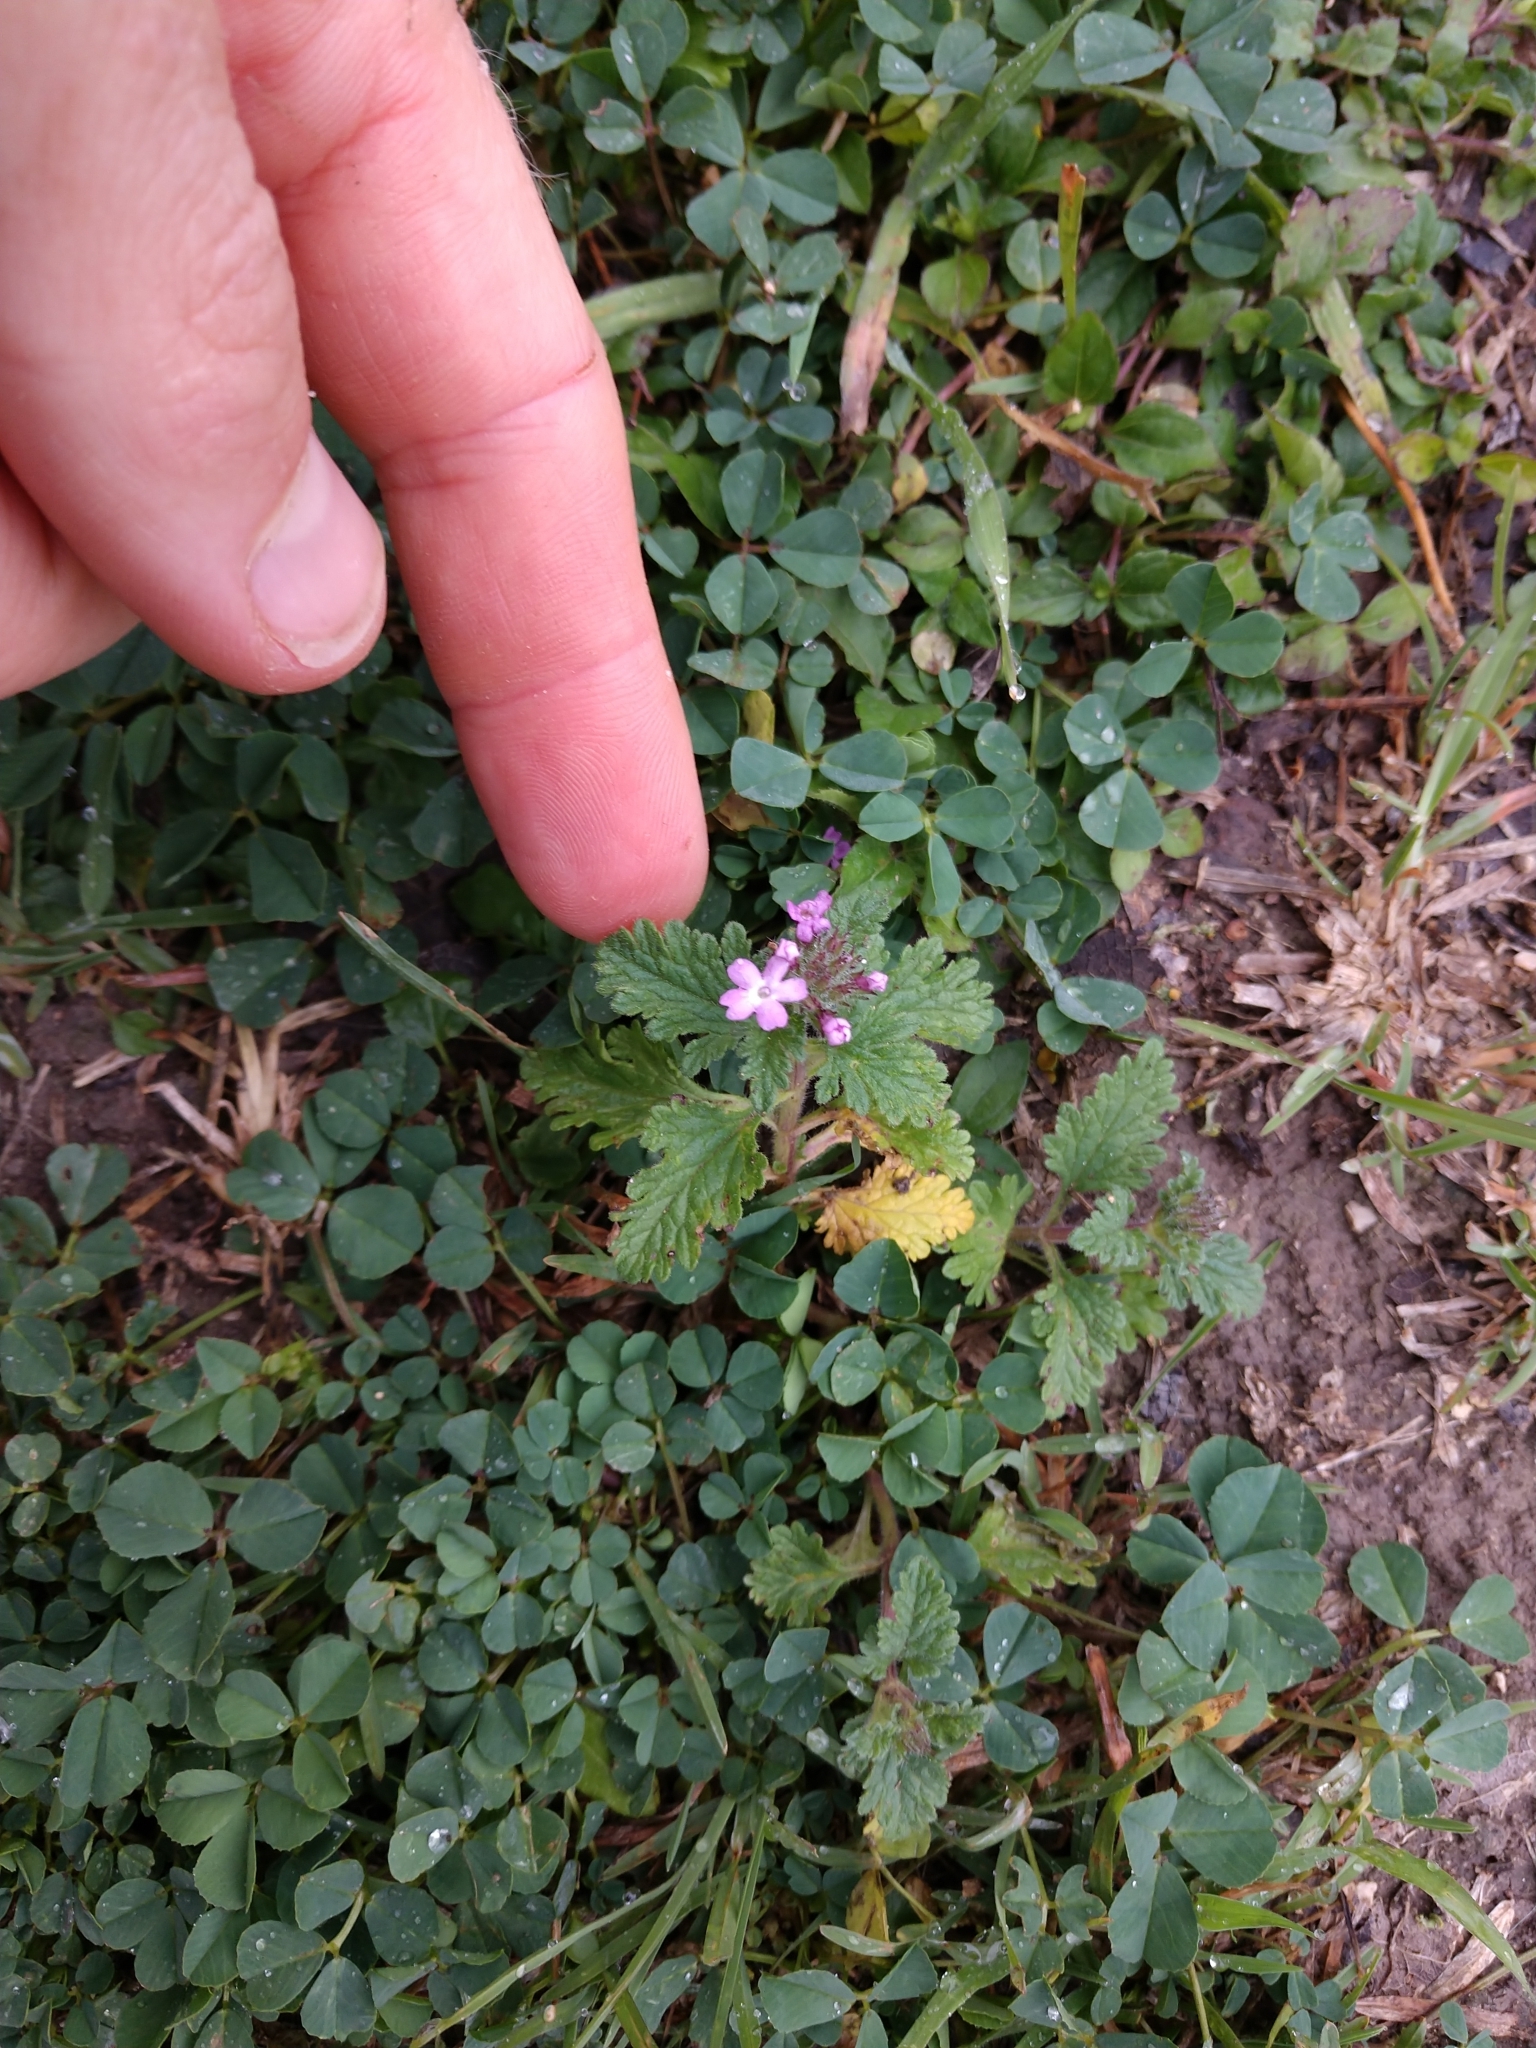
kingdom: Plantae
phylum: Tracheophyta
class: Magnoliopsida
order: Lamiales
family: Verbenaceae
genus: Verbena
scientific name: Verbena pumila
